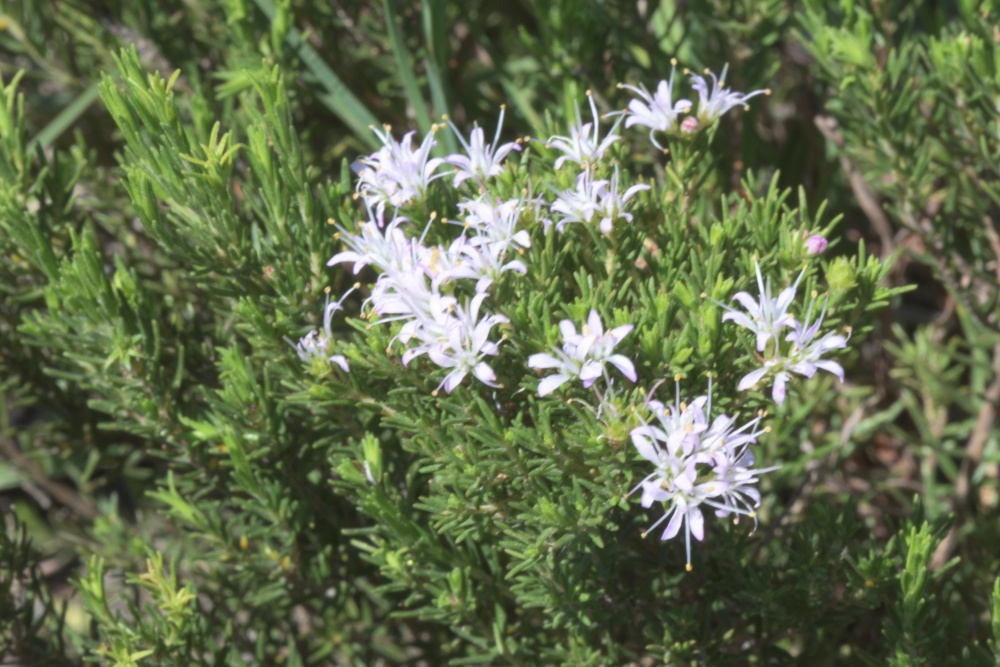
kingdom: Plantae
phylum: Tracheophyta
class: Magnoliopsida
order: Sapindales
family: Rutaceae
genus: Agathosma
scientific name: Agathosma capensis
